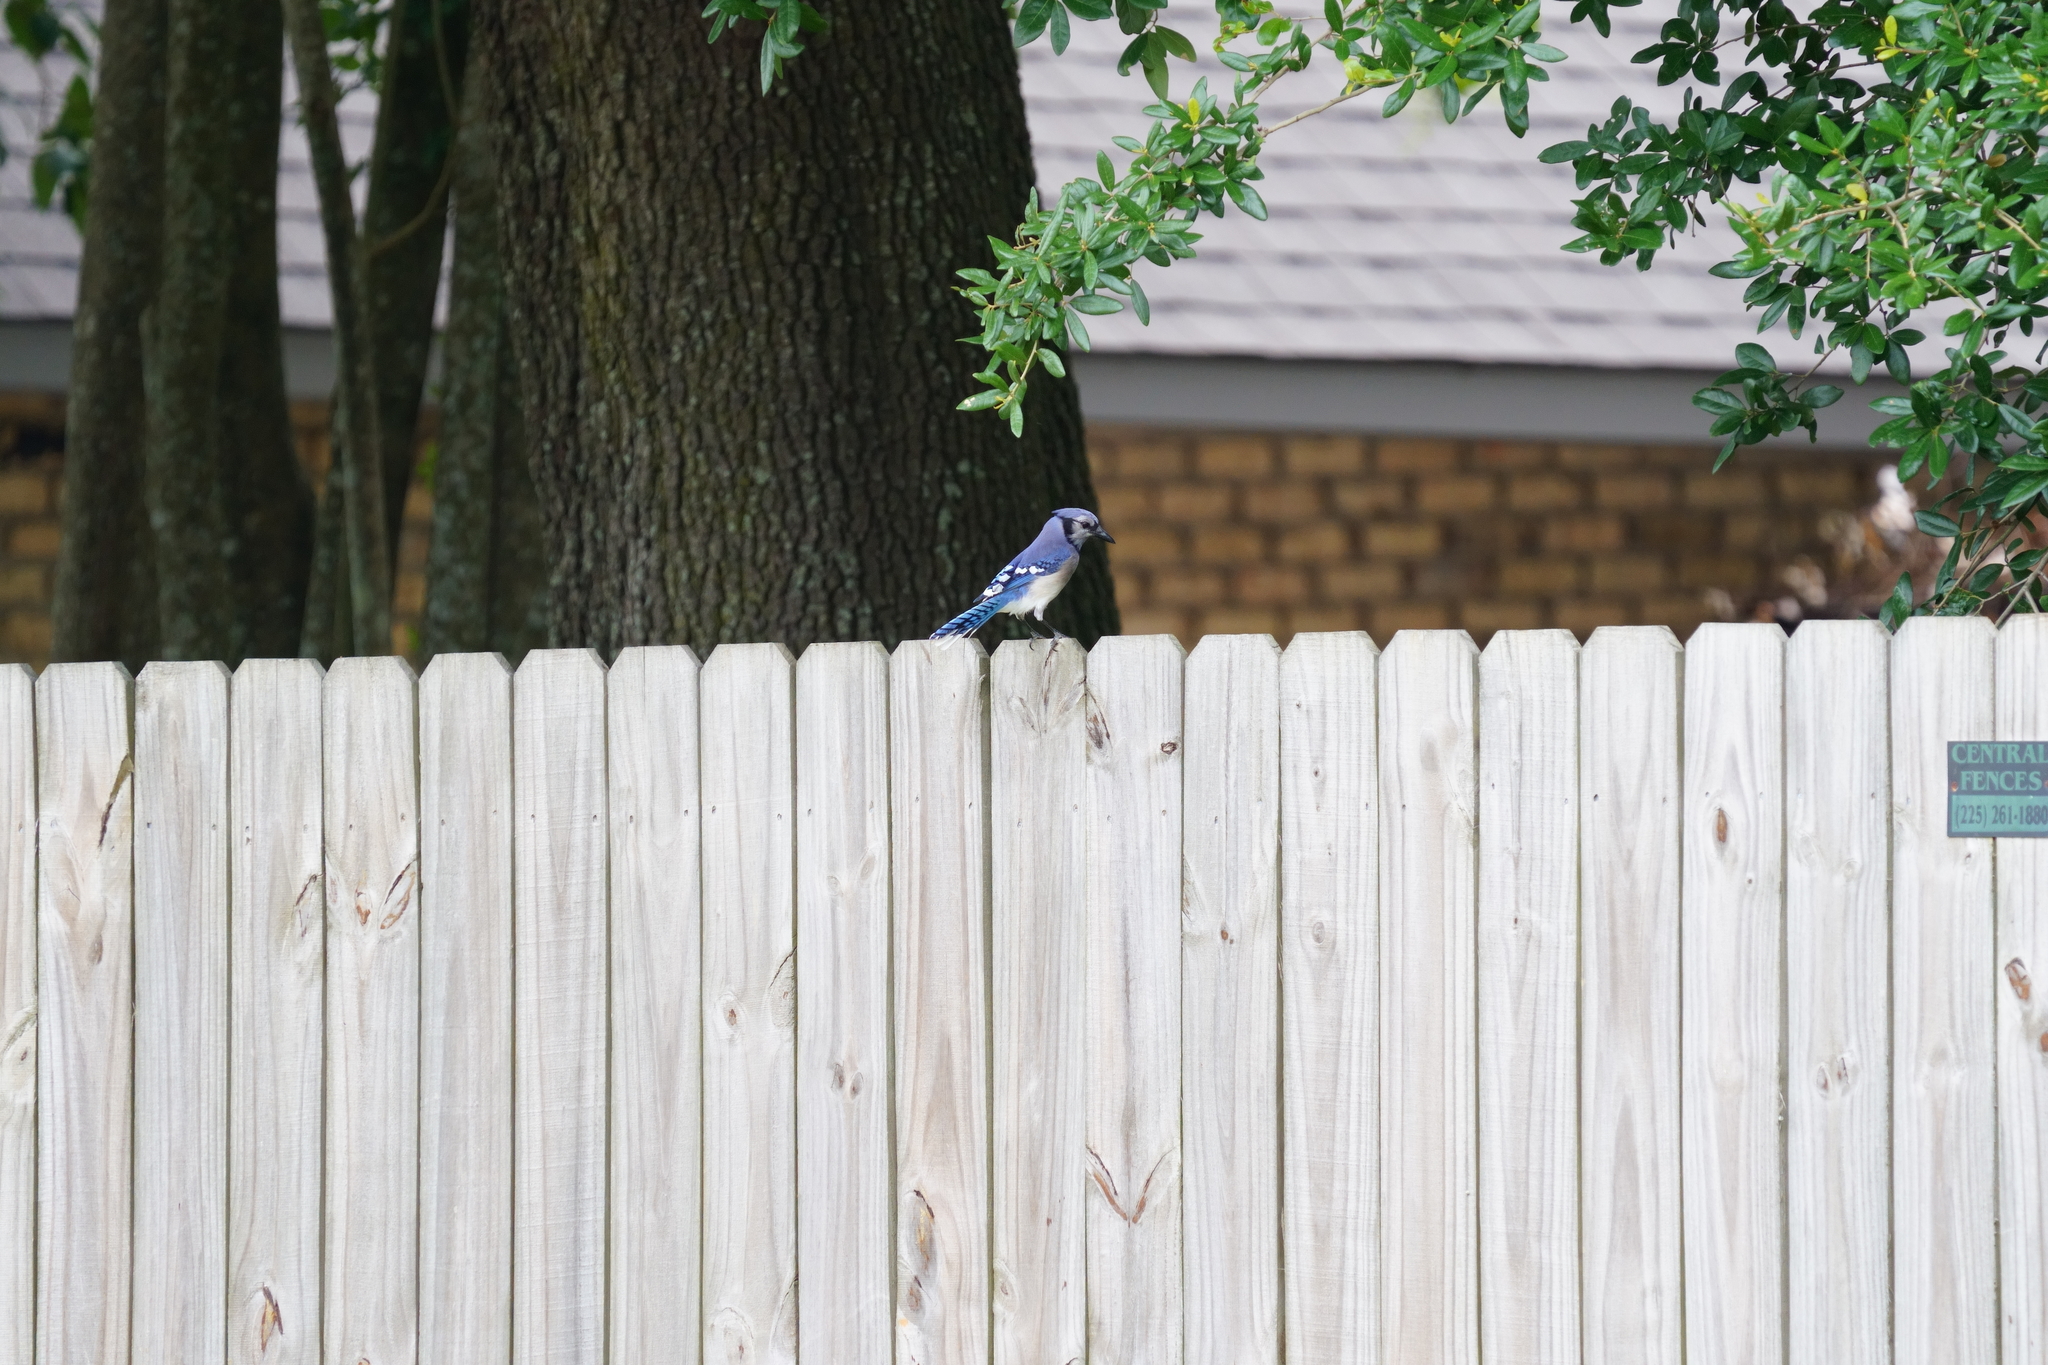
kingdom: Animalia
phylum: Chordata
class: Aves
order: Passeriformes
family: Corvidae
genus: Cyanocitta
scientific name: Cyanocitta cristata
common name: Blue jay
